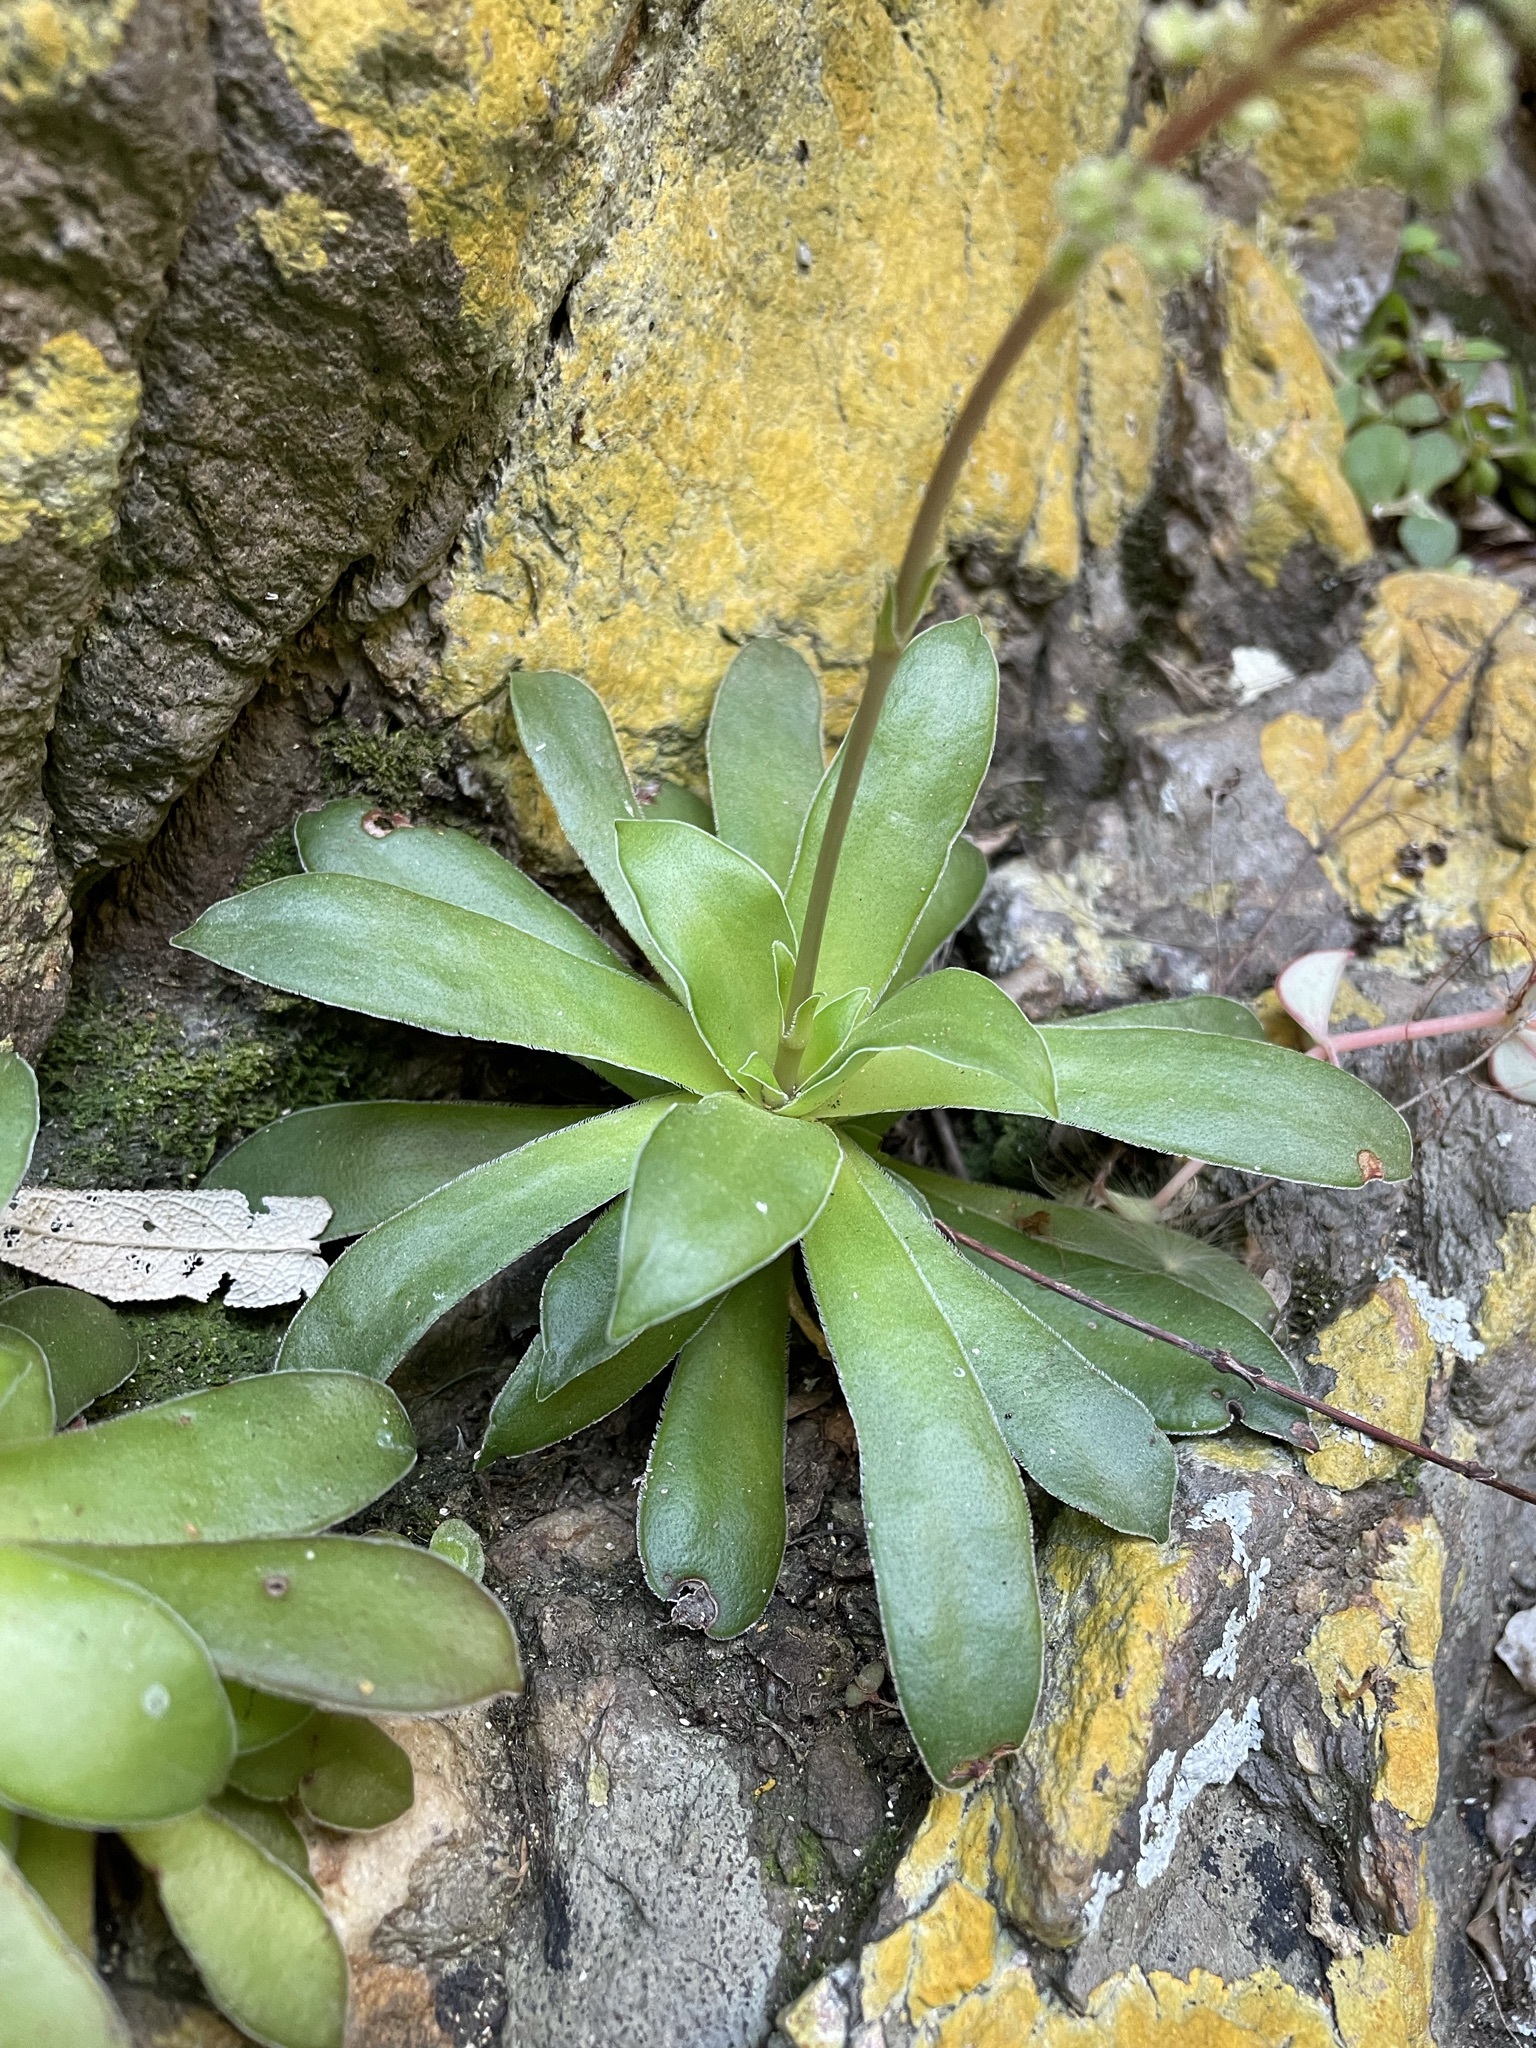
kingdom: Plantae
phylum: Tracheophyta
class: Magnoliopsida
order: Saxifragales
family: Crassulaceae
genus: Crassula
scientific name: Crassula orbicularis
